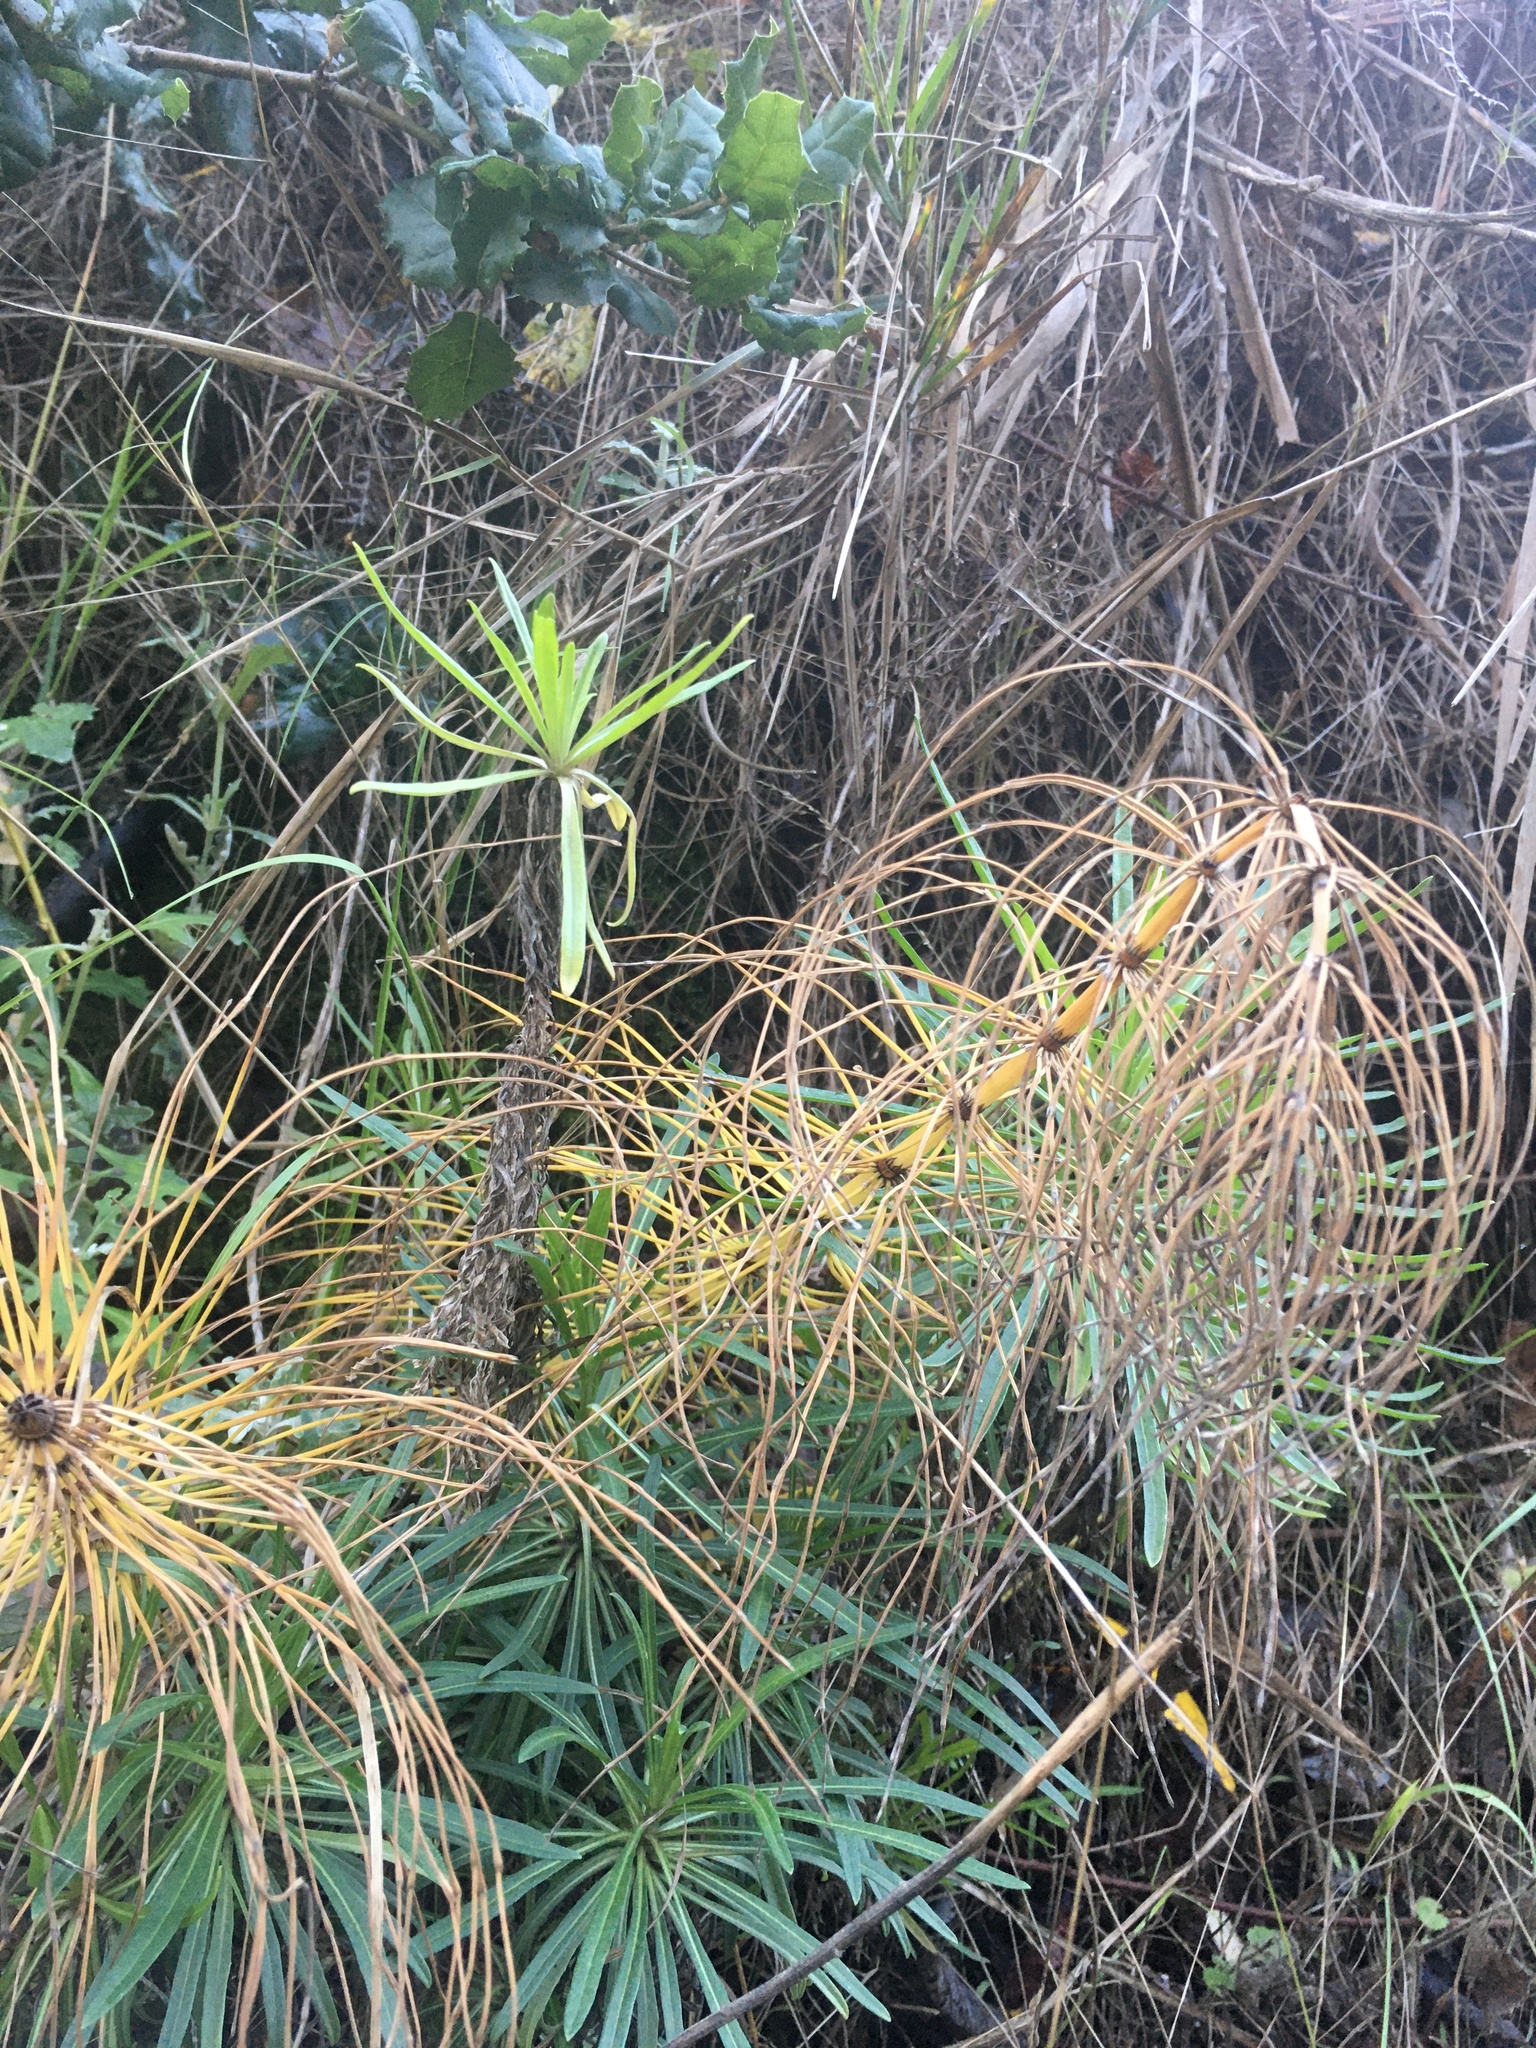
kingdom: Plantae
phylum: Tracheophyta
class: Polypodiopsida
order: Equisetales
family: Equisetaceae
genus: Equisetum
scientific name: Equisetum braunii
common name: Braun's horsetail
